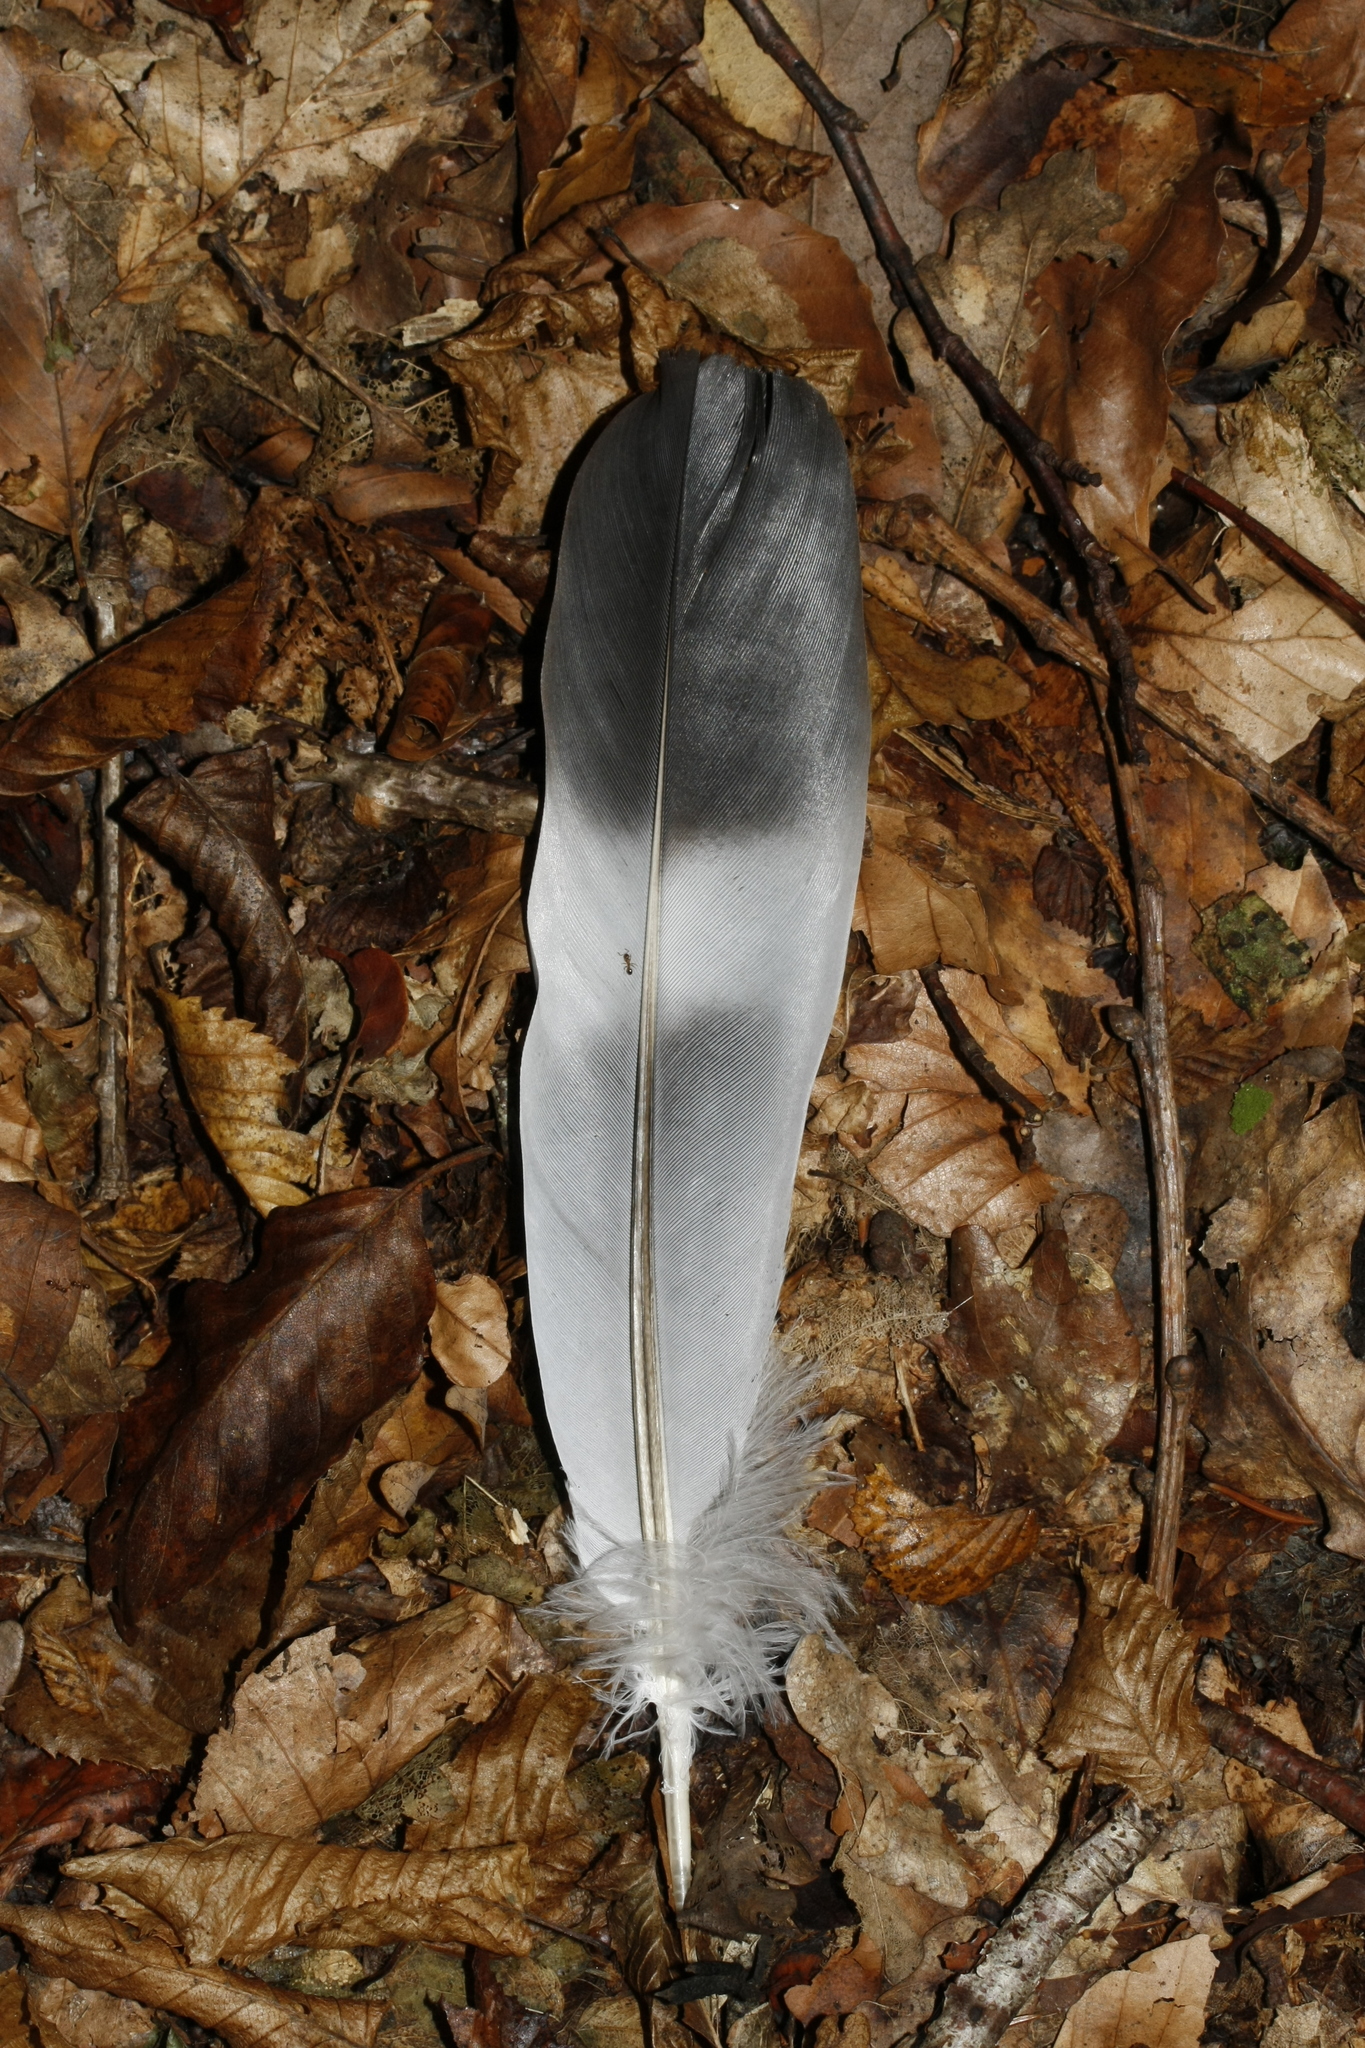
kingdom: Animalia
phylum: Chordata
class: Aves
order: Columbiformes
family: Columbidae
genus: Columba
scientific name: Columba palumbus
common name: Common wood pigeon
